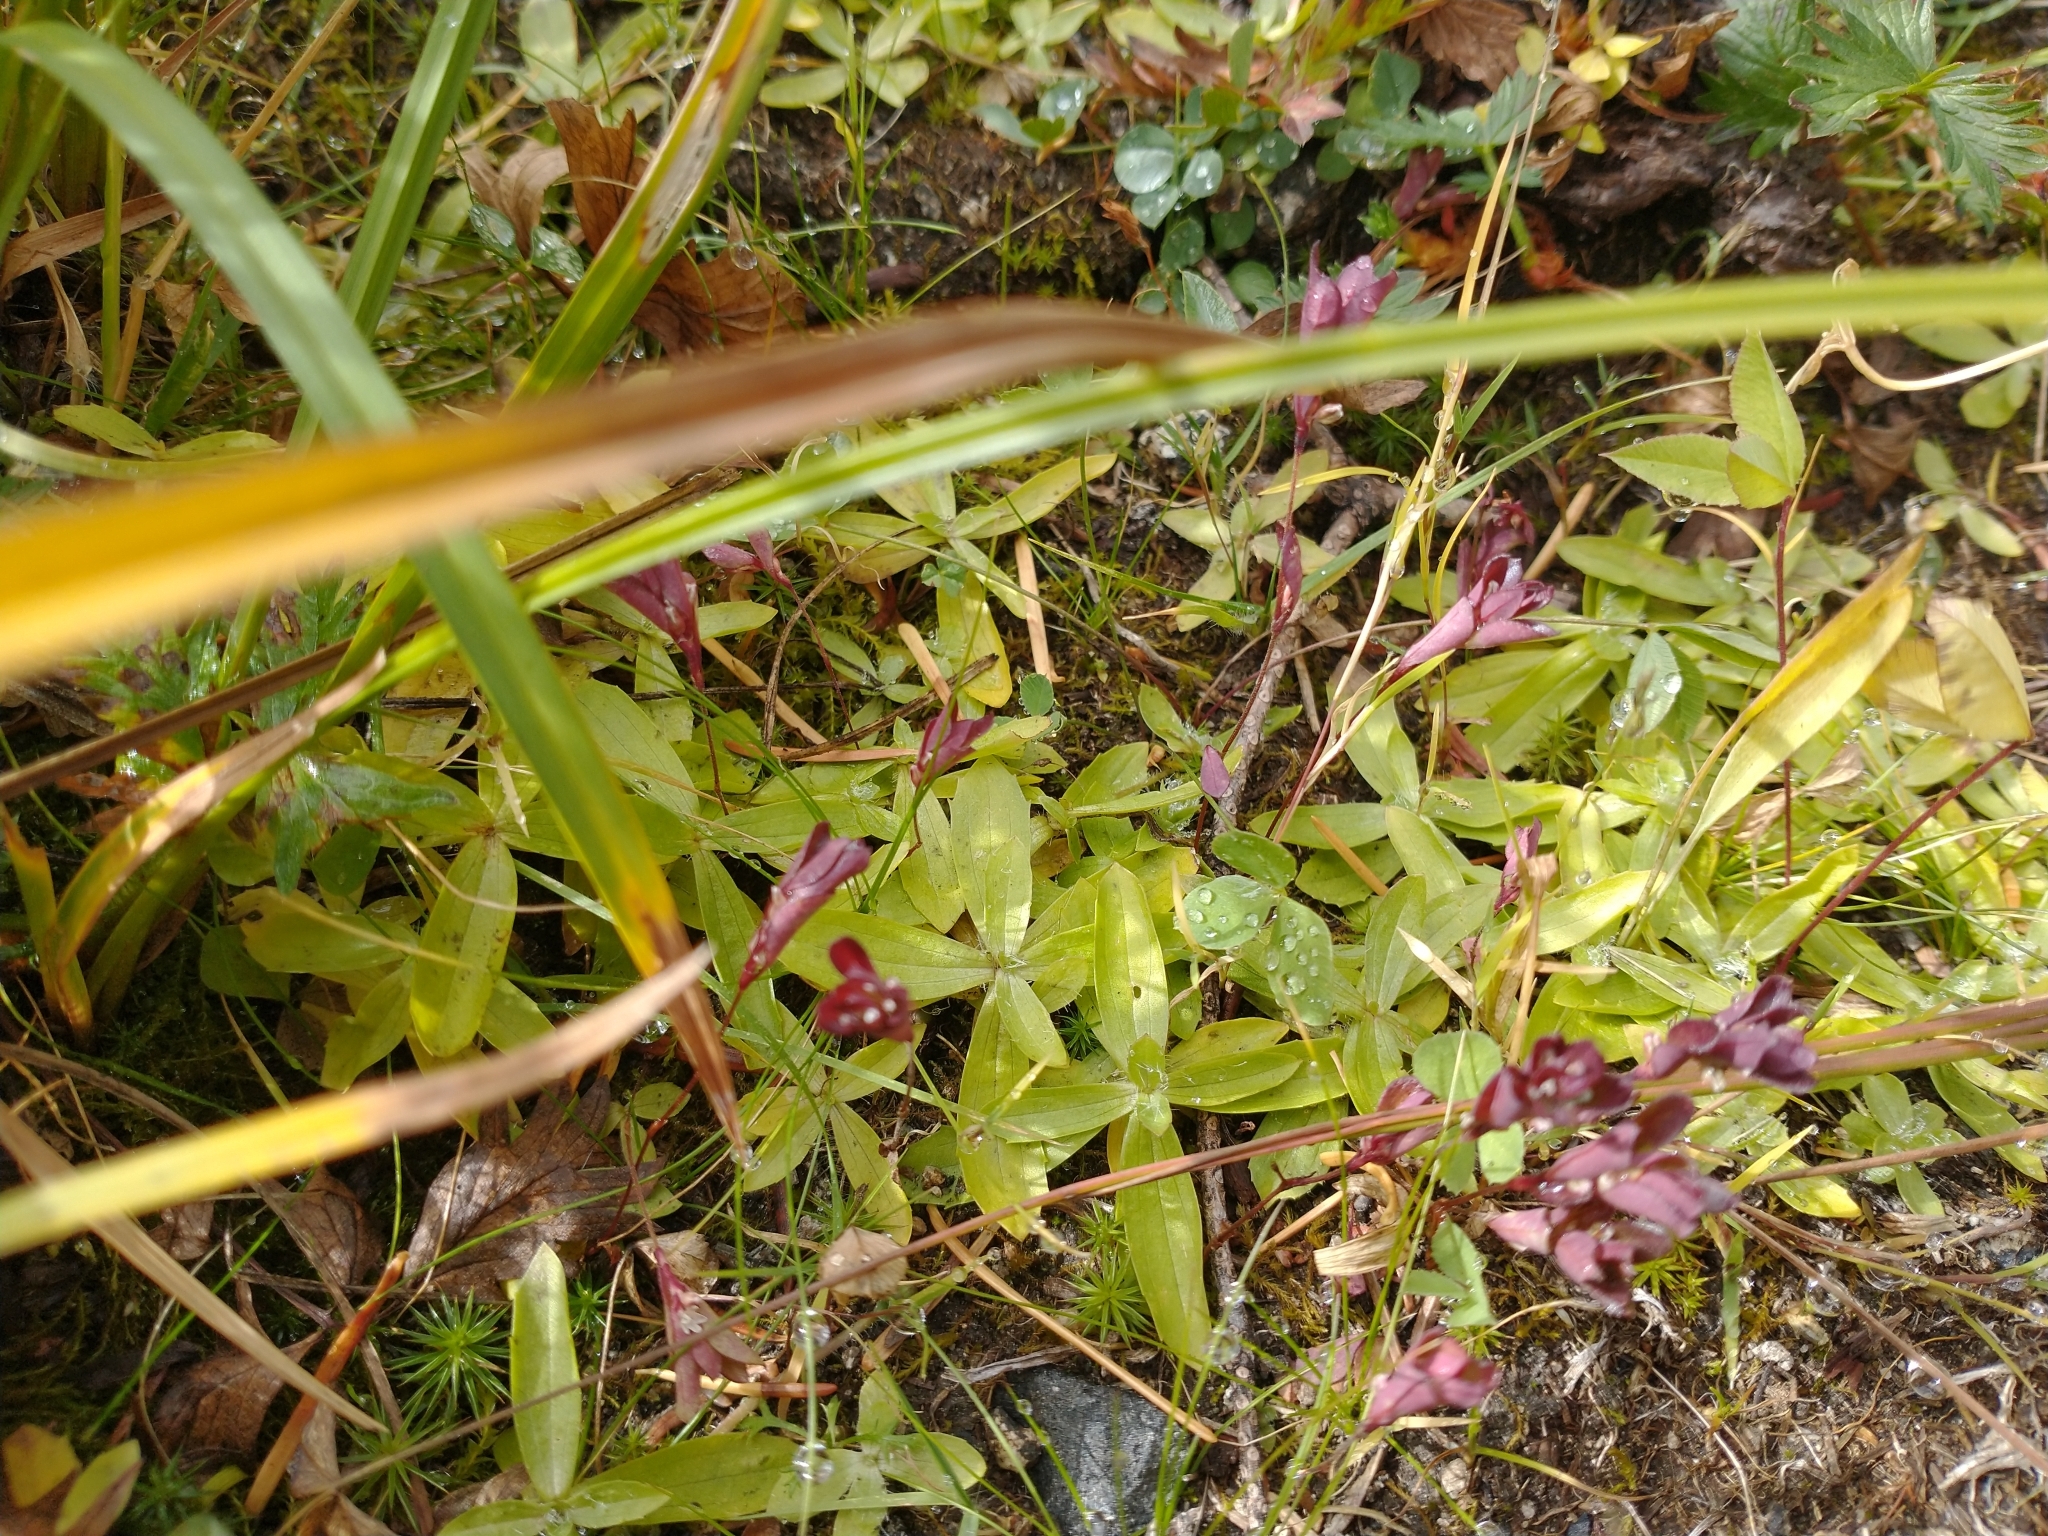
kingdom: Plantae
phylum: Tracheophyta
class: Magnoliopsida
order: Lamiales
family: Phrymaceae
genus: Erythranthe
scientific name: Erythranthe linearifolia
